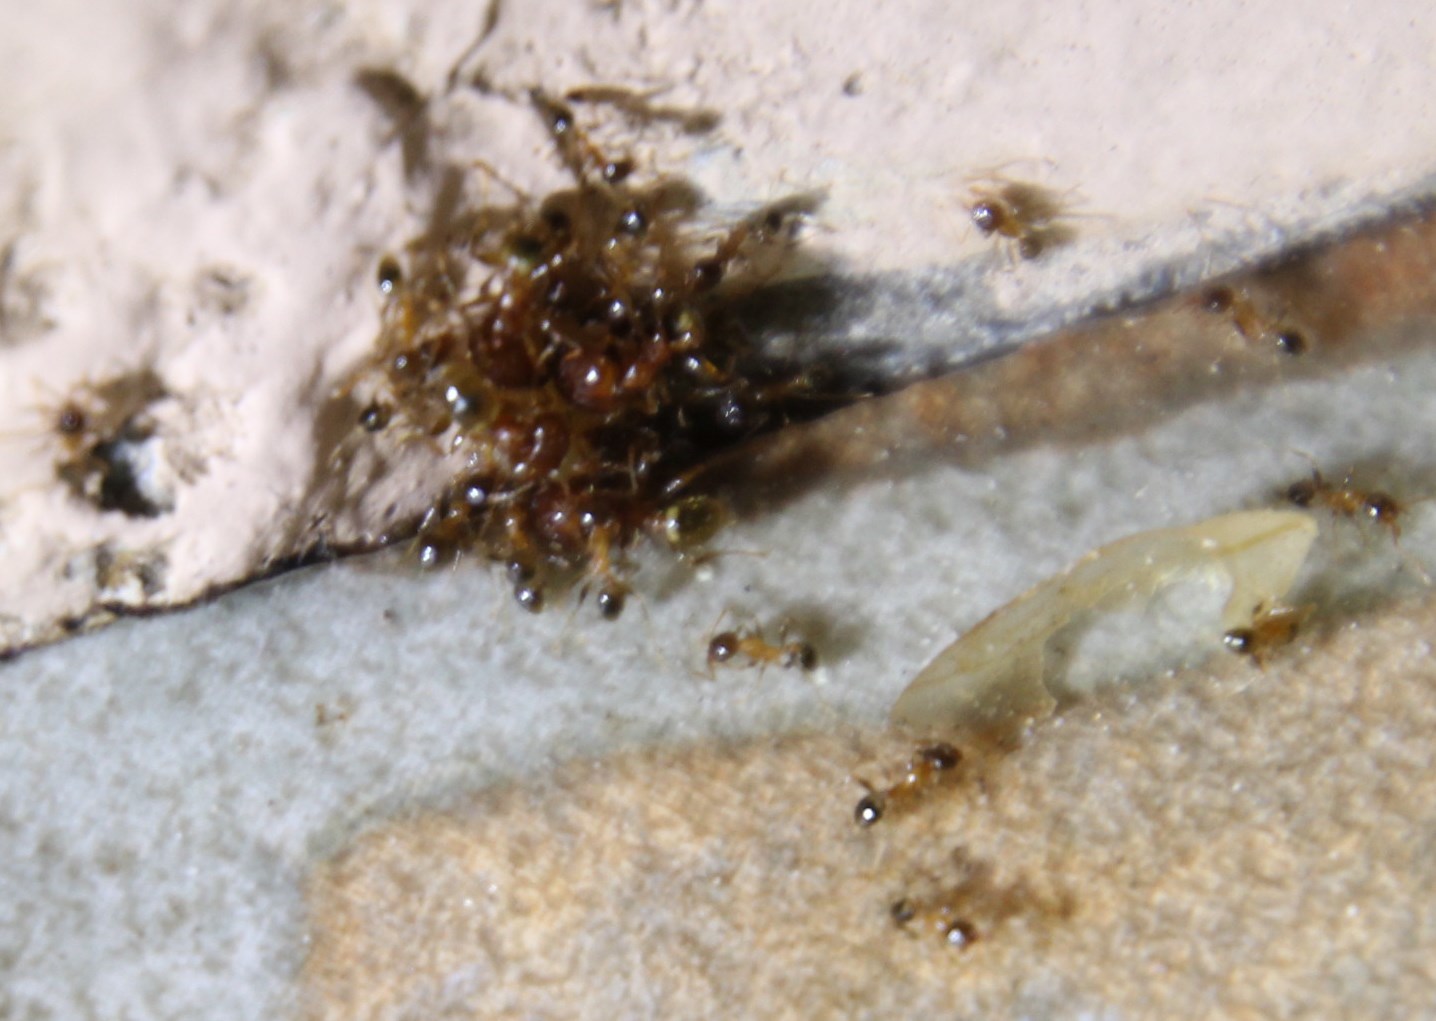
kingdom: Animalia
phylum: Arthropoda
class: Insecta
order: Hymenoptera
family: Formicidae
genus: Pheidole
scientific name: Pheidole megacephala
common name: Bigheaded ant
